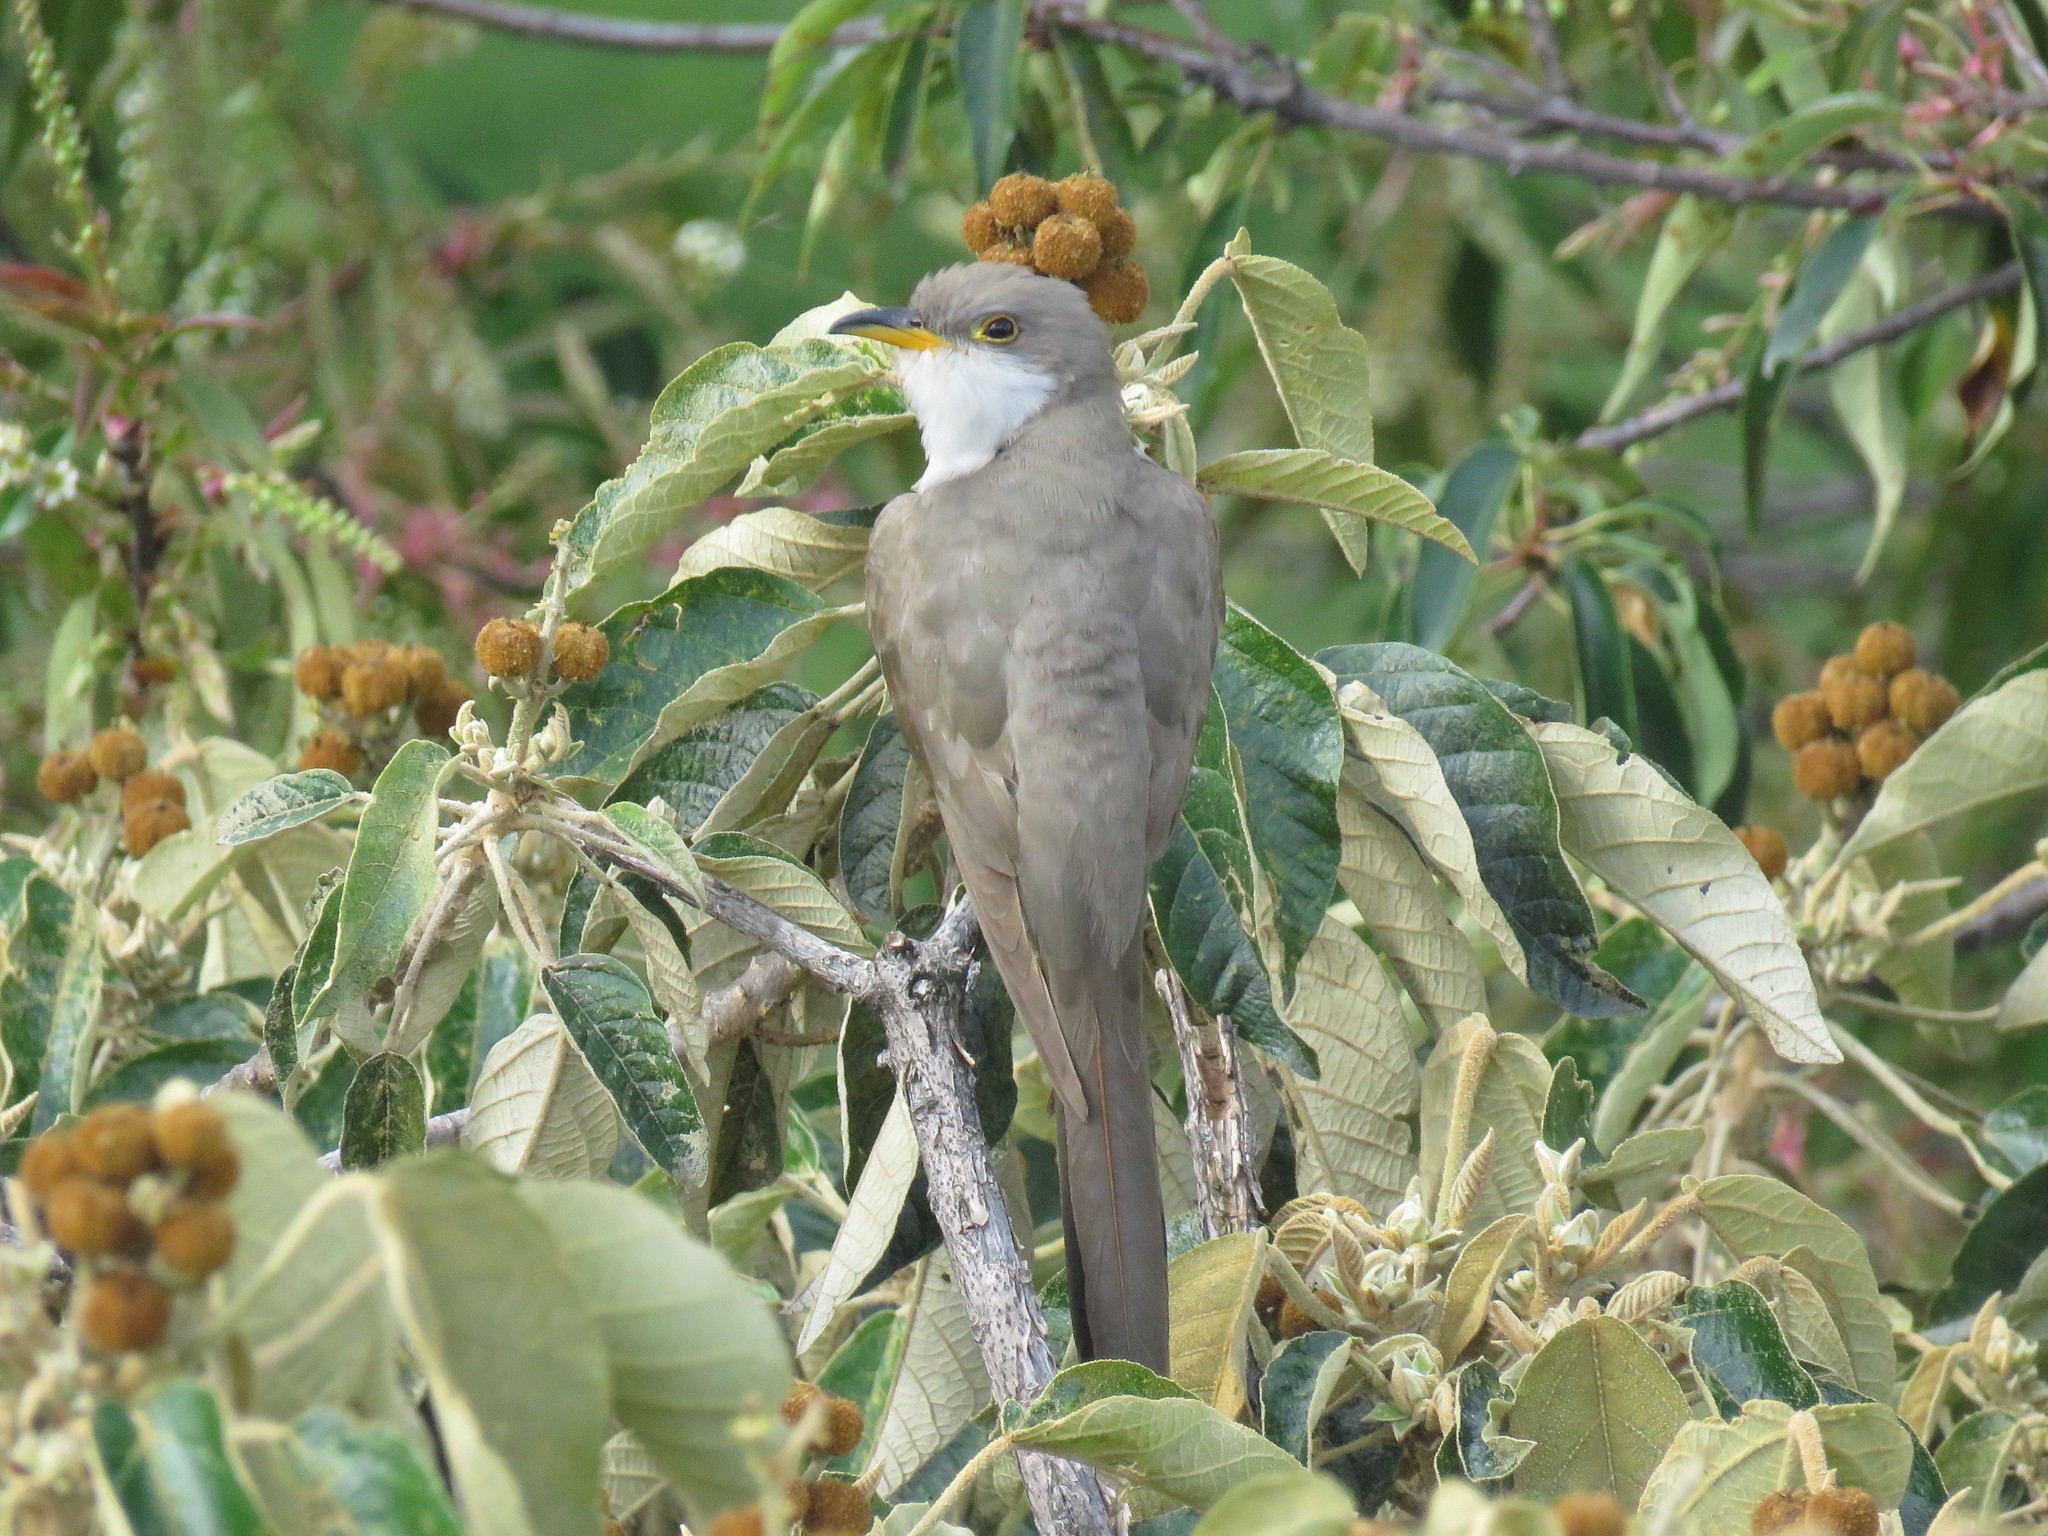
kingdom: Animalia
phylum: Chordata
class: Aves
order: Cuculiformes
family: Cuculidae
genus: Coccyzus
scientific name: Coccyzus americanus
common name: Yellow-billed cuckoo
